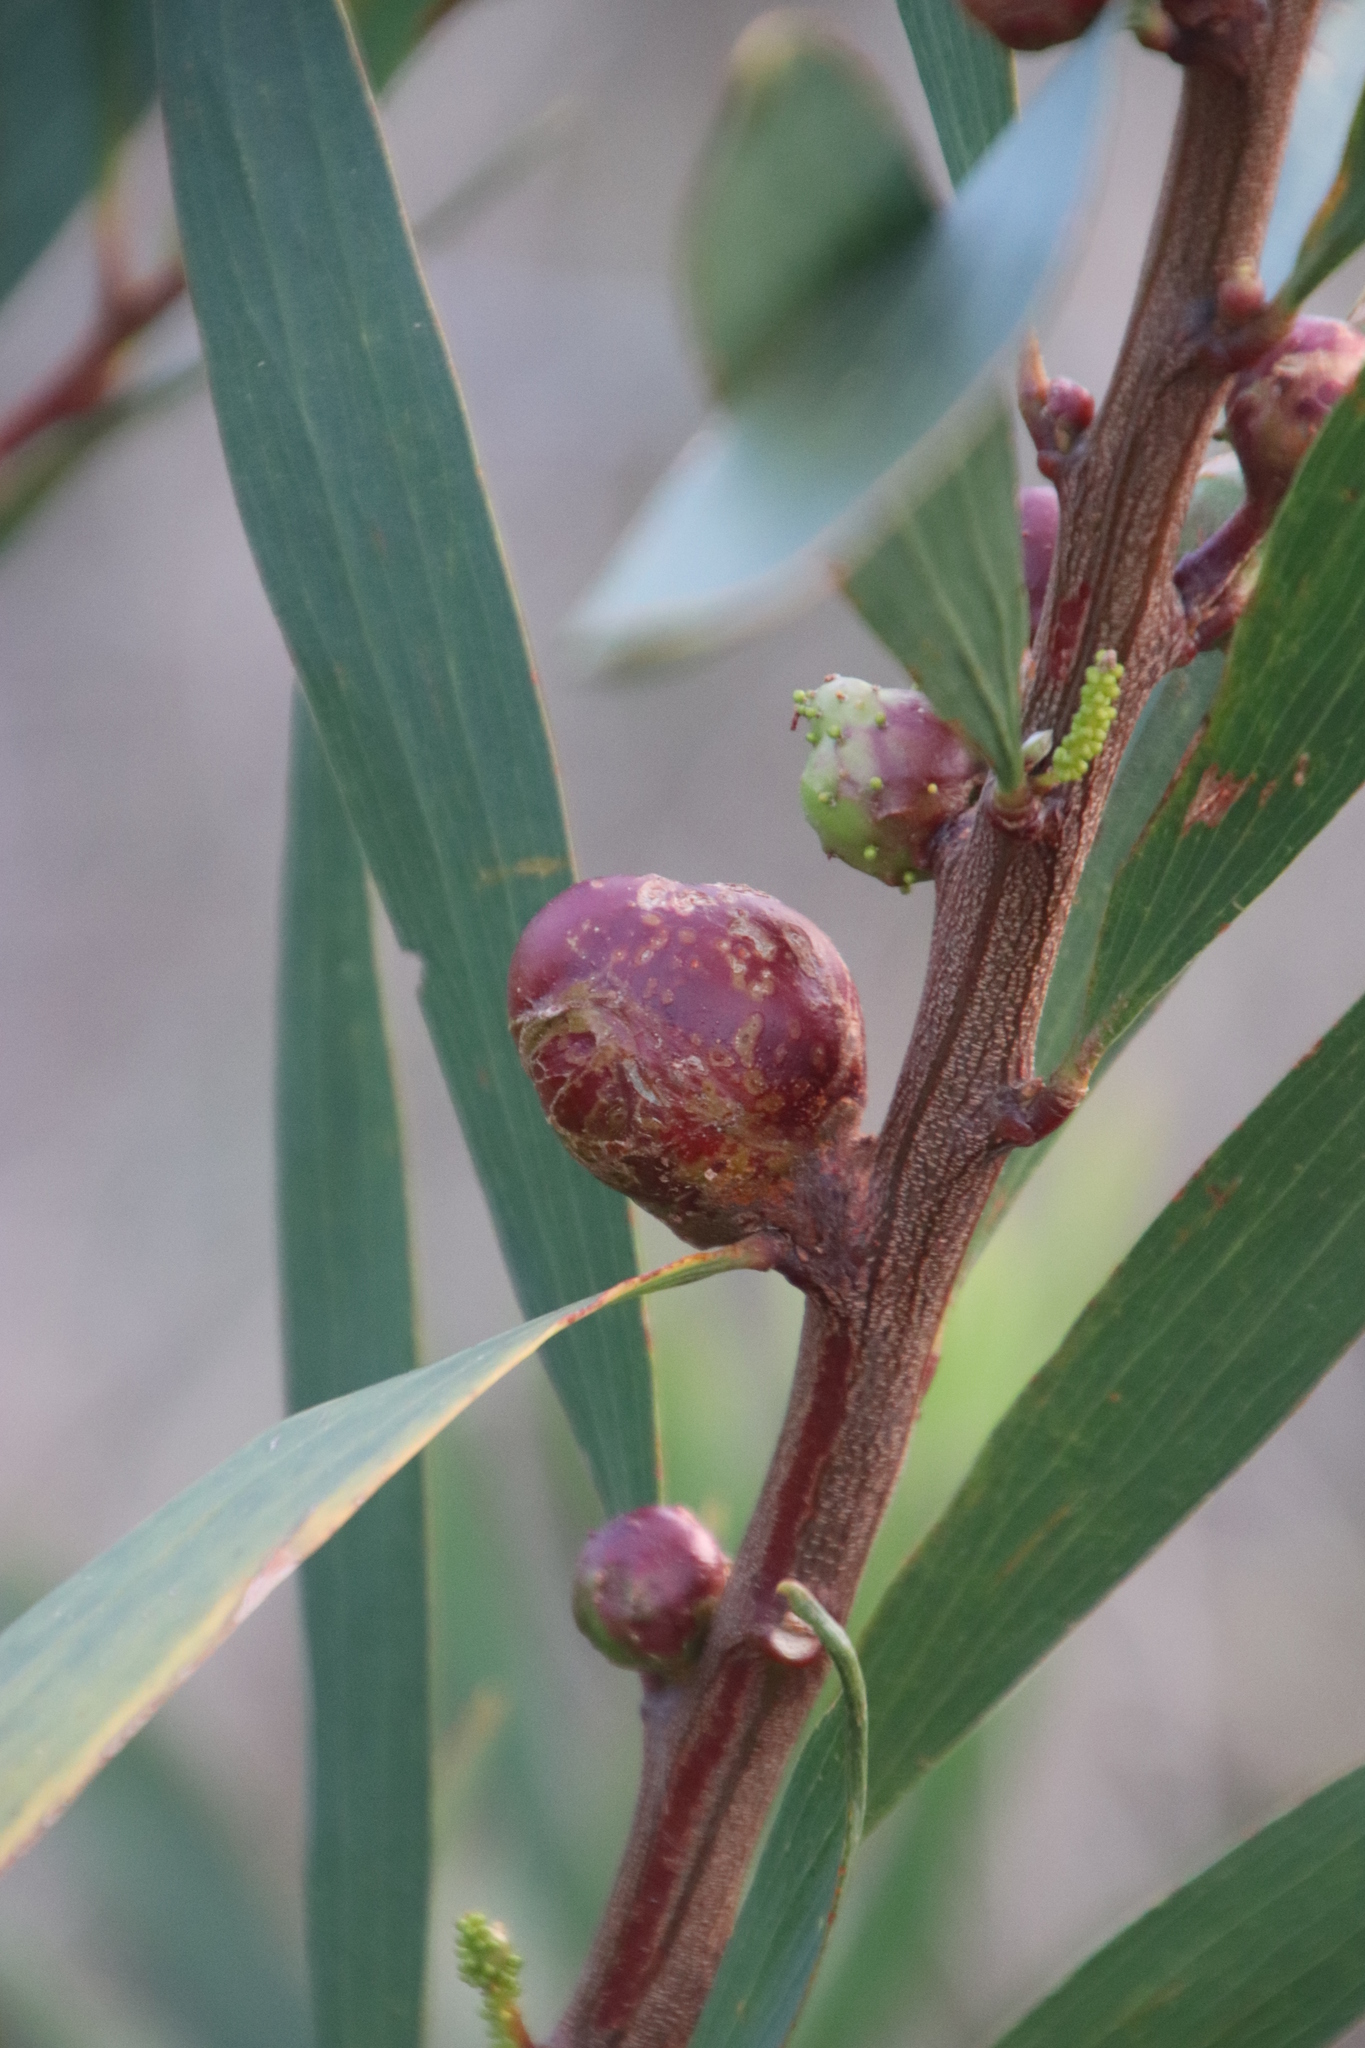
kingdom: Plantae
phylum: Tracheophyta
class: Magnoliopsida
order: Fabales
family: Fabaceae
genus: Acacia
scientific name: Acacia longifolia
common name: Sydney golden wattle
